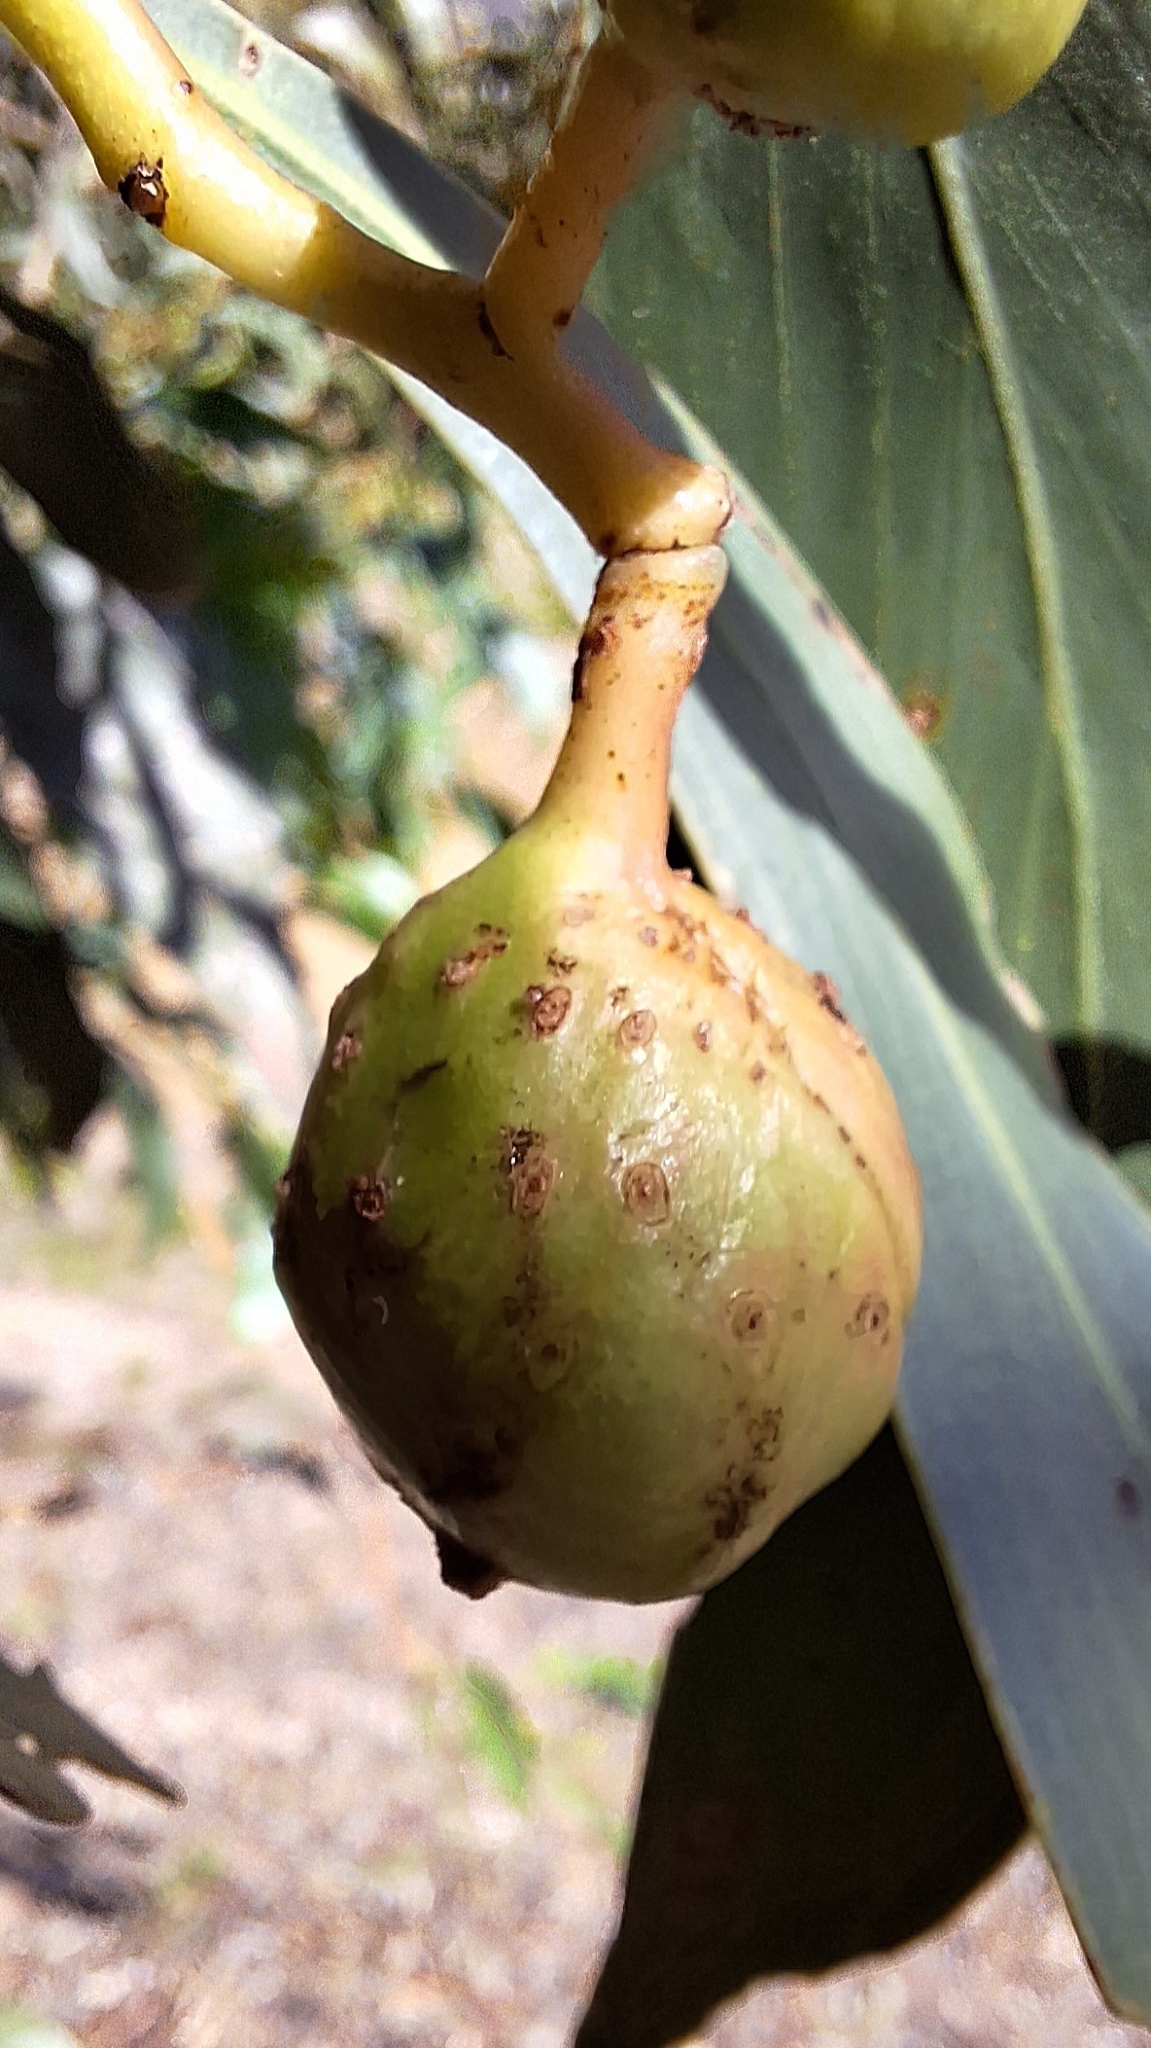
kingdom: Animalia
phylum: Arthropoda
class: Insecta
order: Hymenoptera
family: Pteromalidae
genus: Trichilogaster
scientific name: Trichilogaster signiventris
